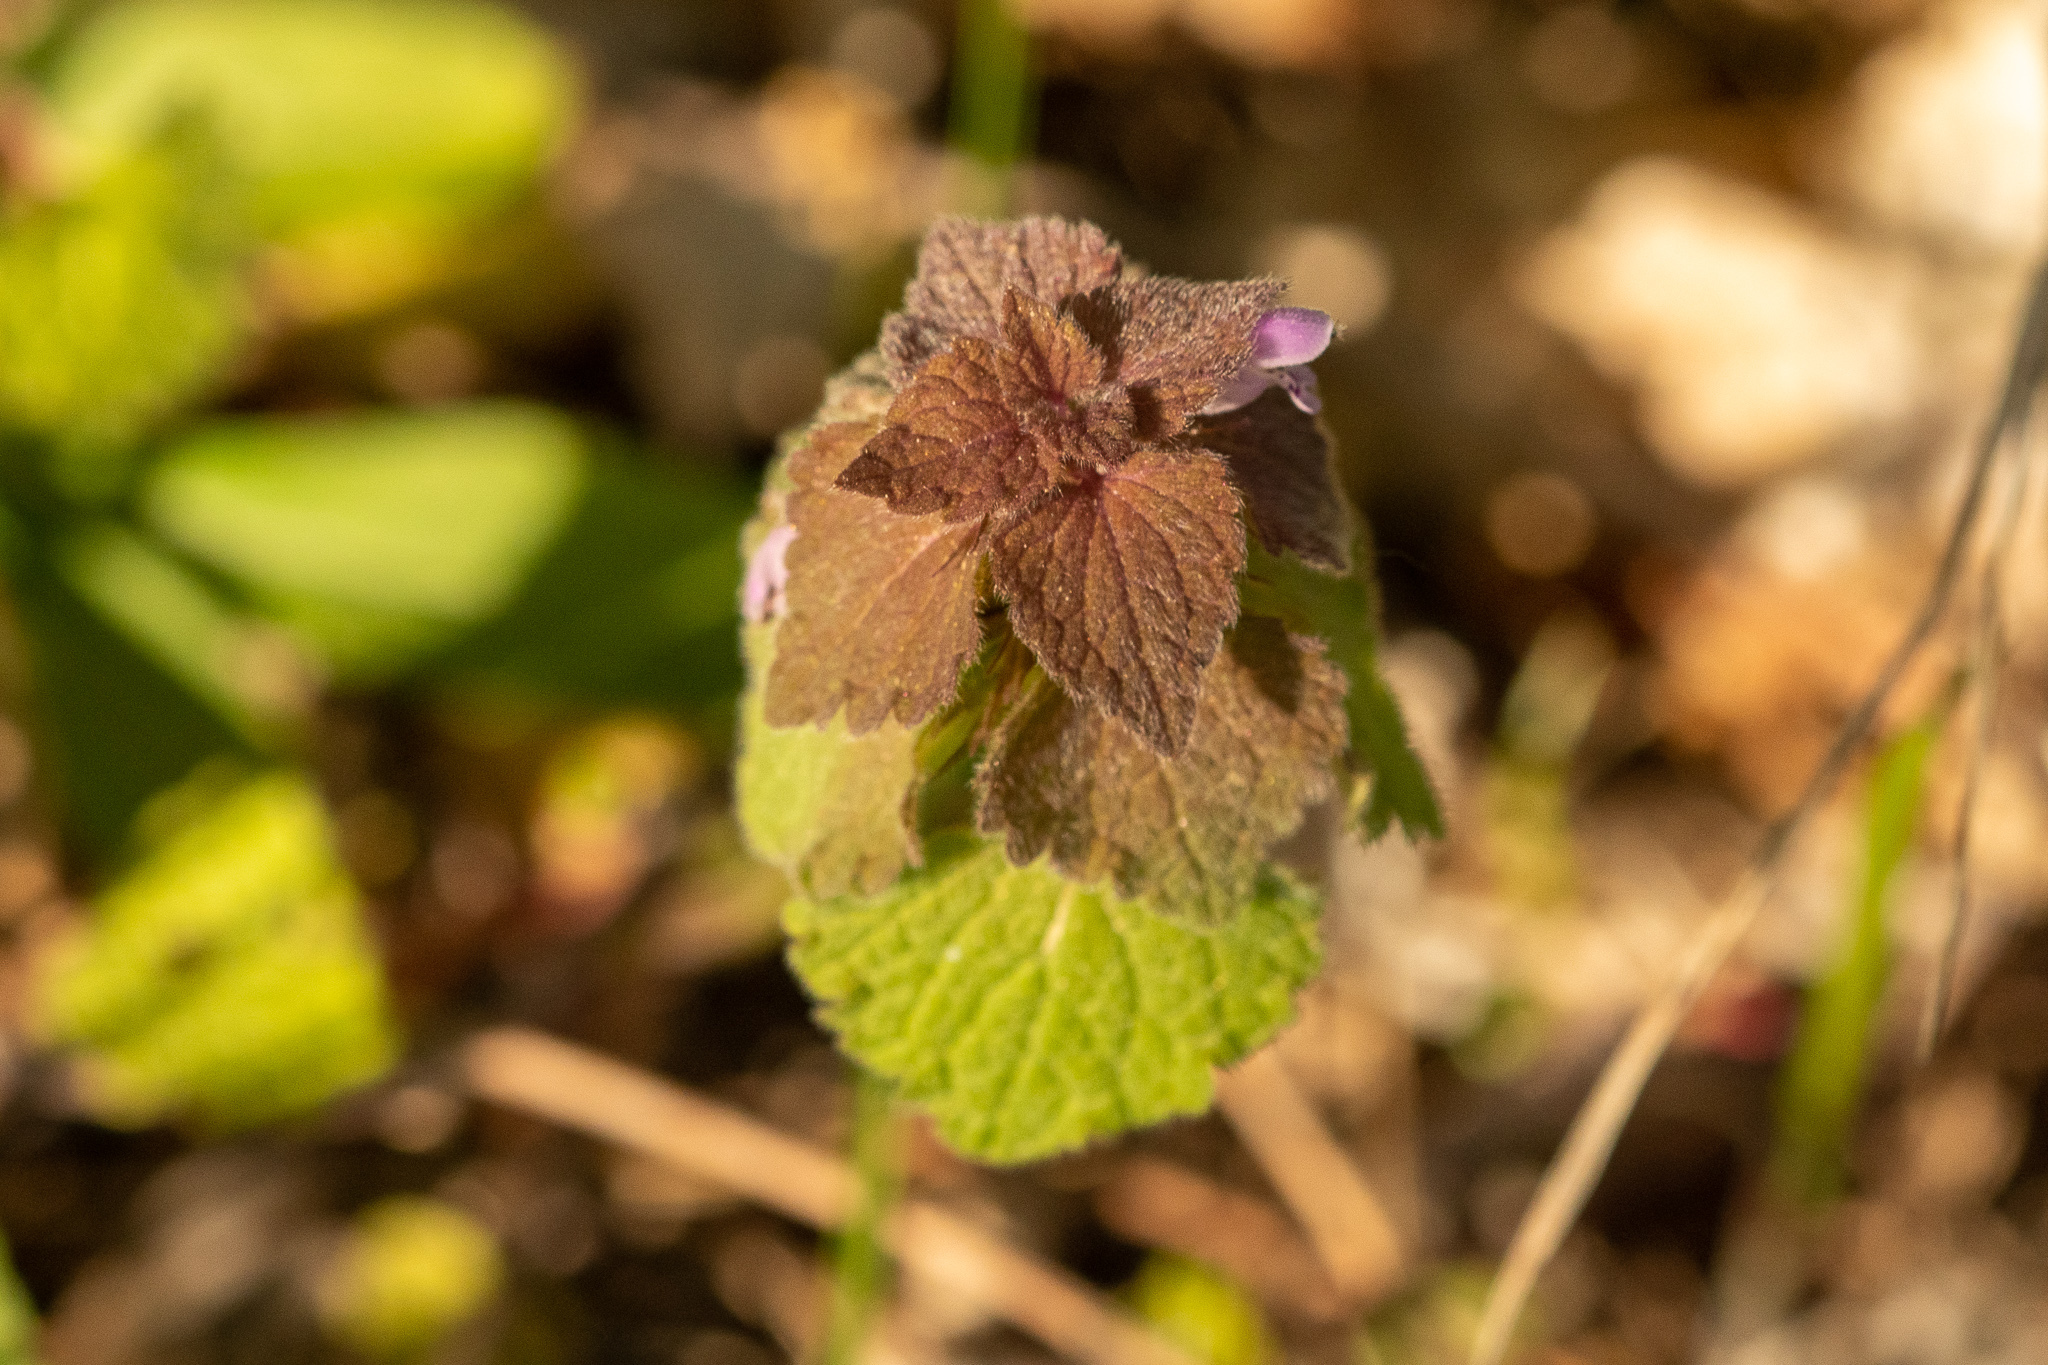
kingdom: Plantae
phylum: Tracheophyta
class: Magnoliopsida
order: Lamiales
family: Lamiaceae
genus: Lamium
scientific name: Lamium purpureum
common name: Red dead-nettle
